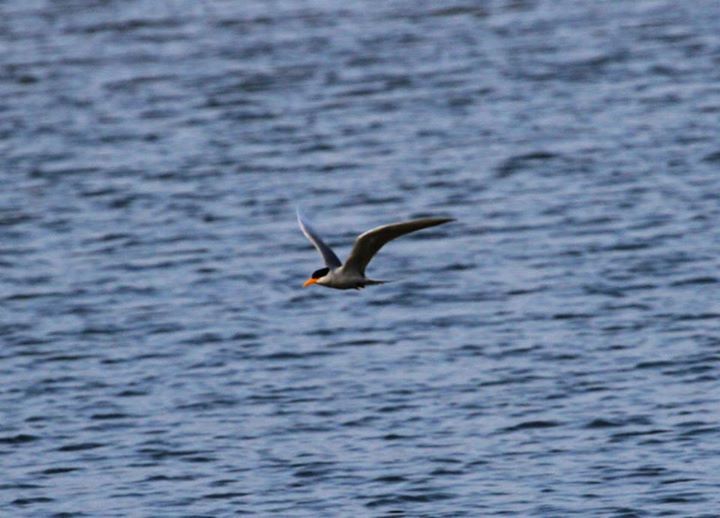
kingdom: Animalia
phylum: Chordata
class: Aves
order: Charadriiformes
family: Laridae
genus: Sterna
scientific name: Sterna aurantia
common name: River tern
